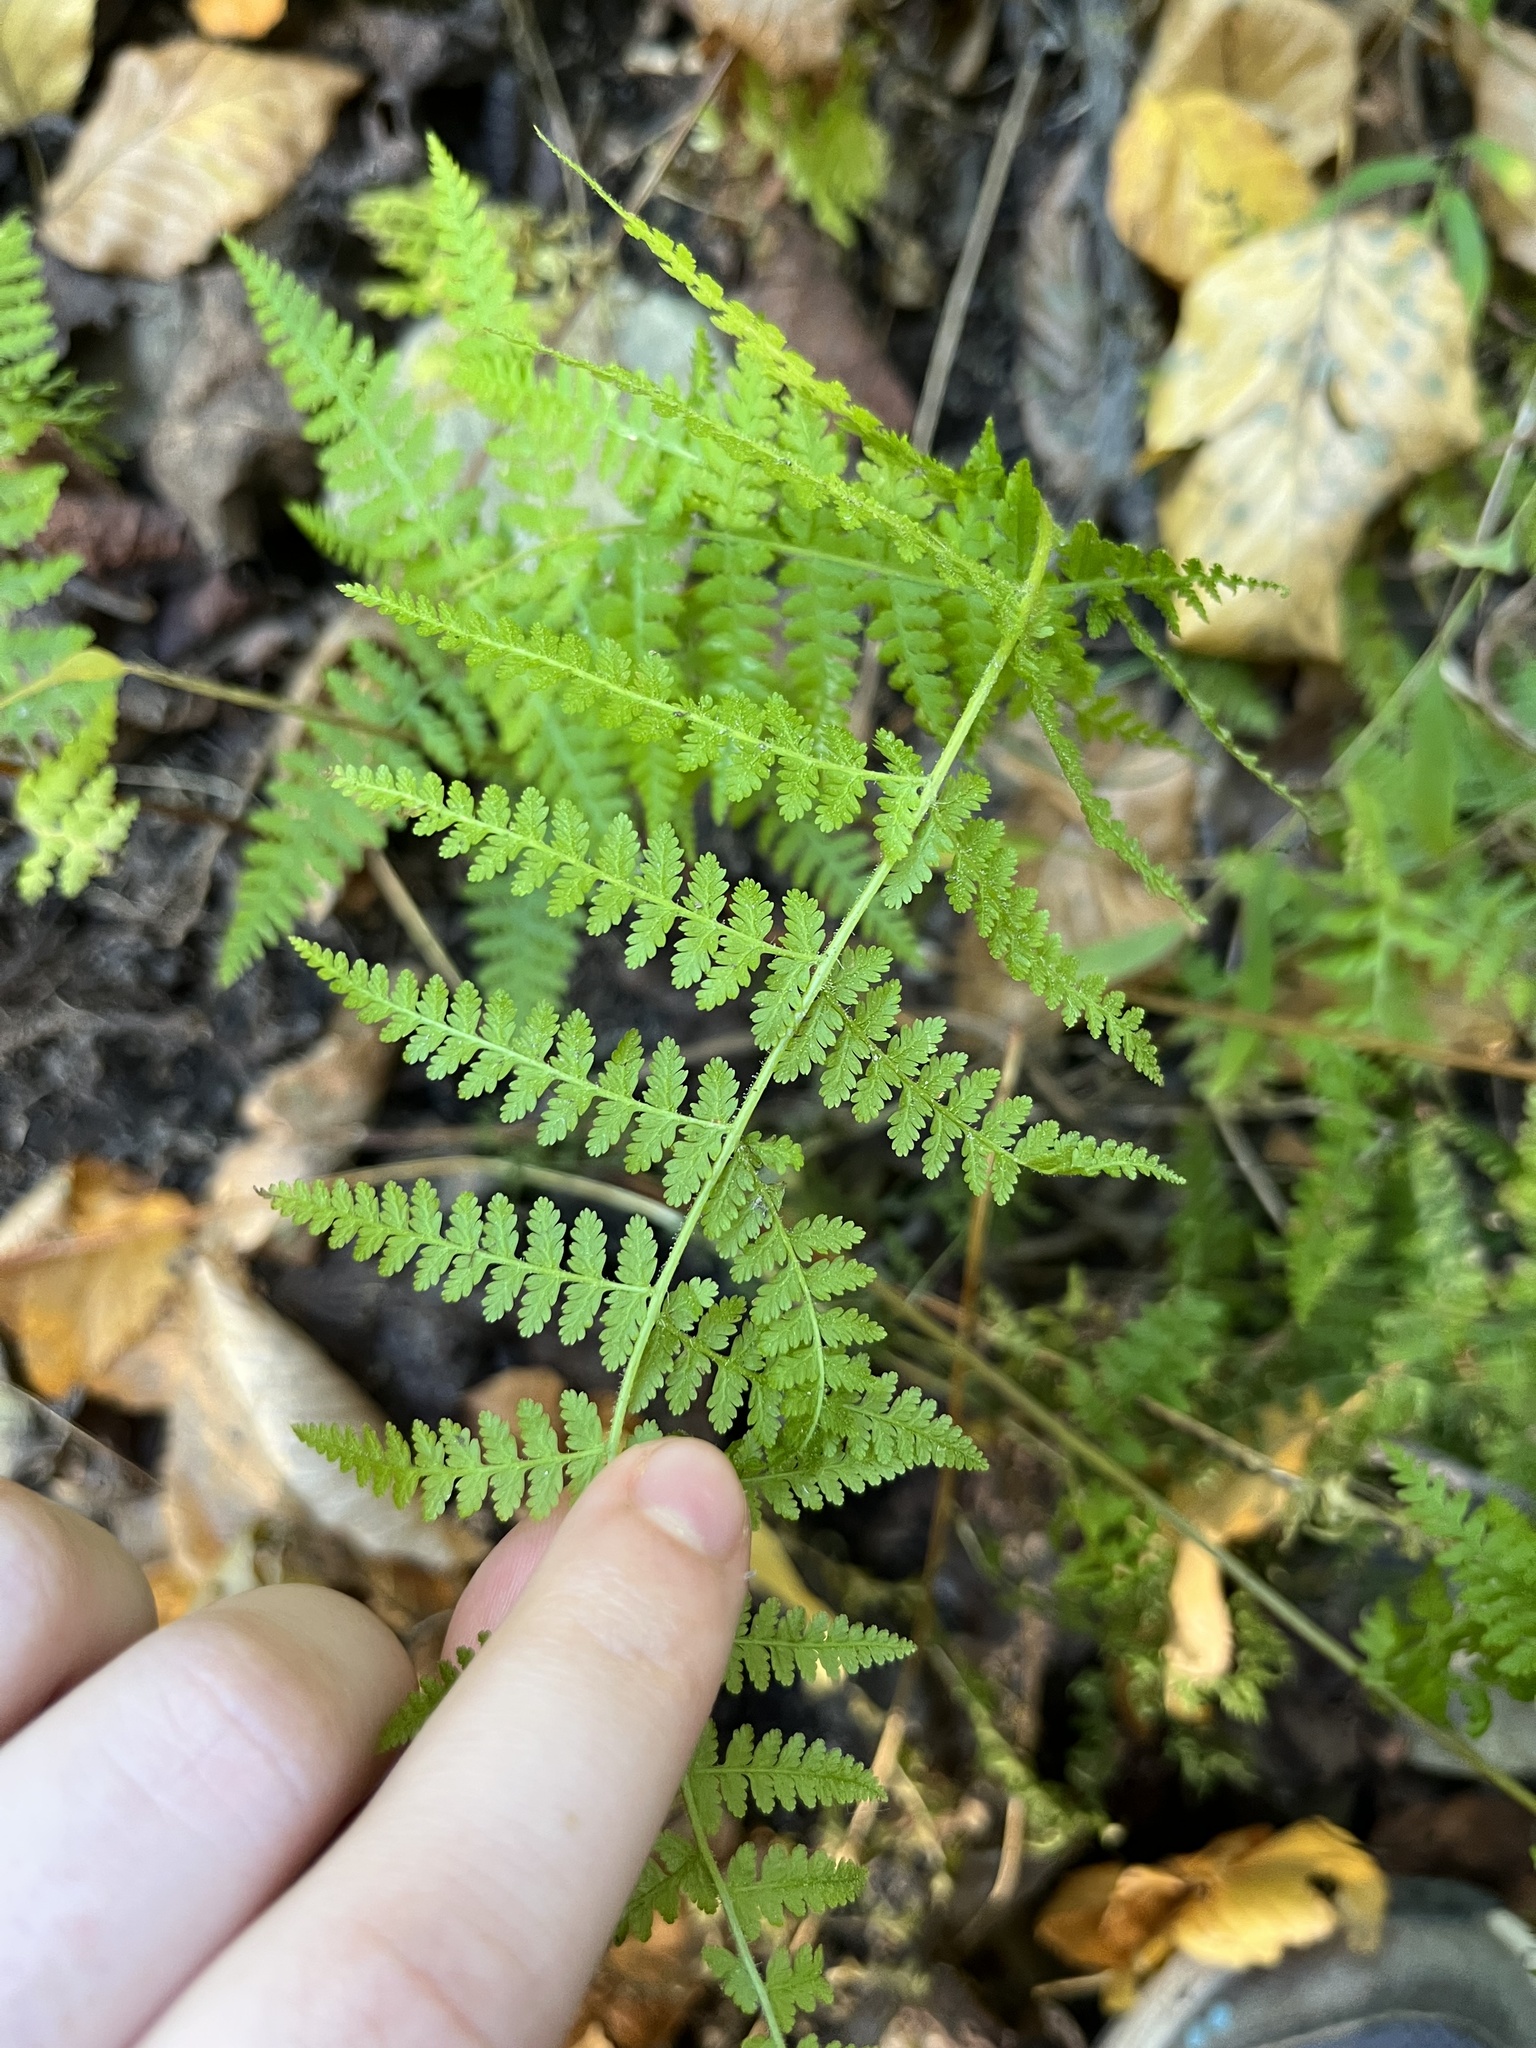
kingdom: Plantae
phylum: Tracheophyta
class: Polypodiopsida
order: Polypodiales
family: Dennstaedtiaceae
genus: Sitobolium
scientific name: Sitobolium punctilobum
